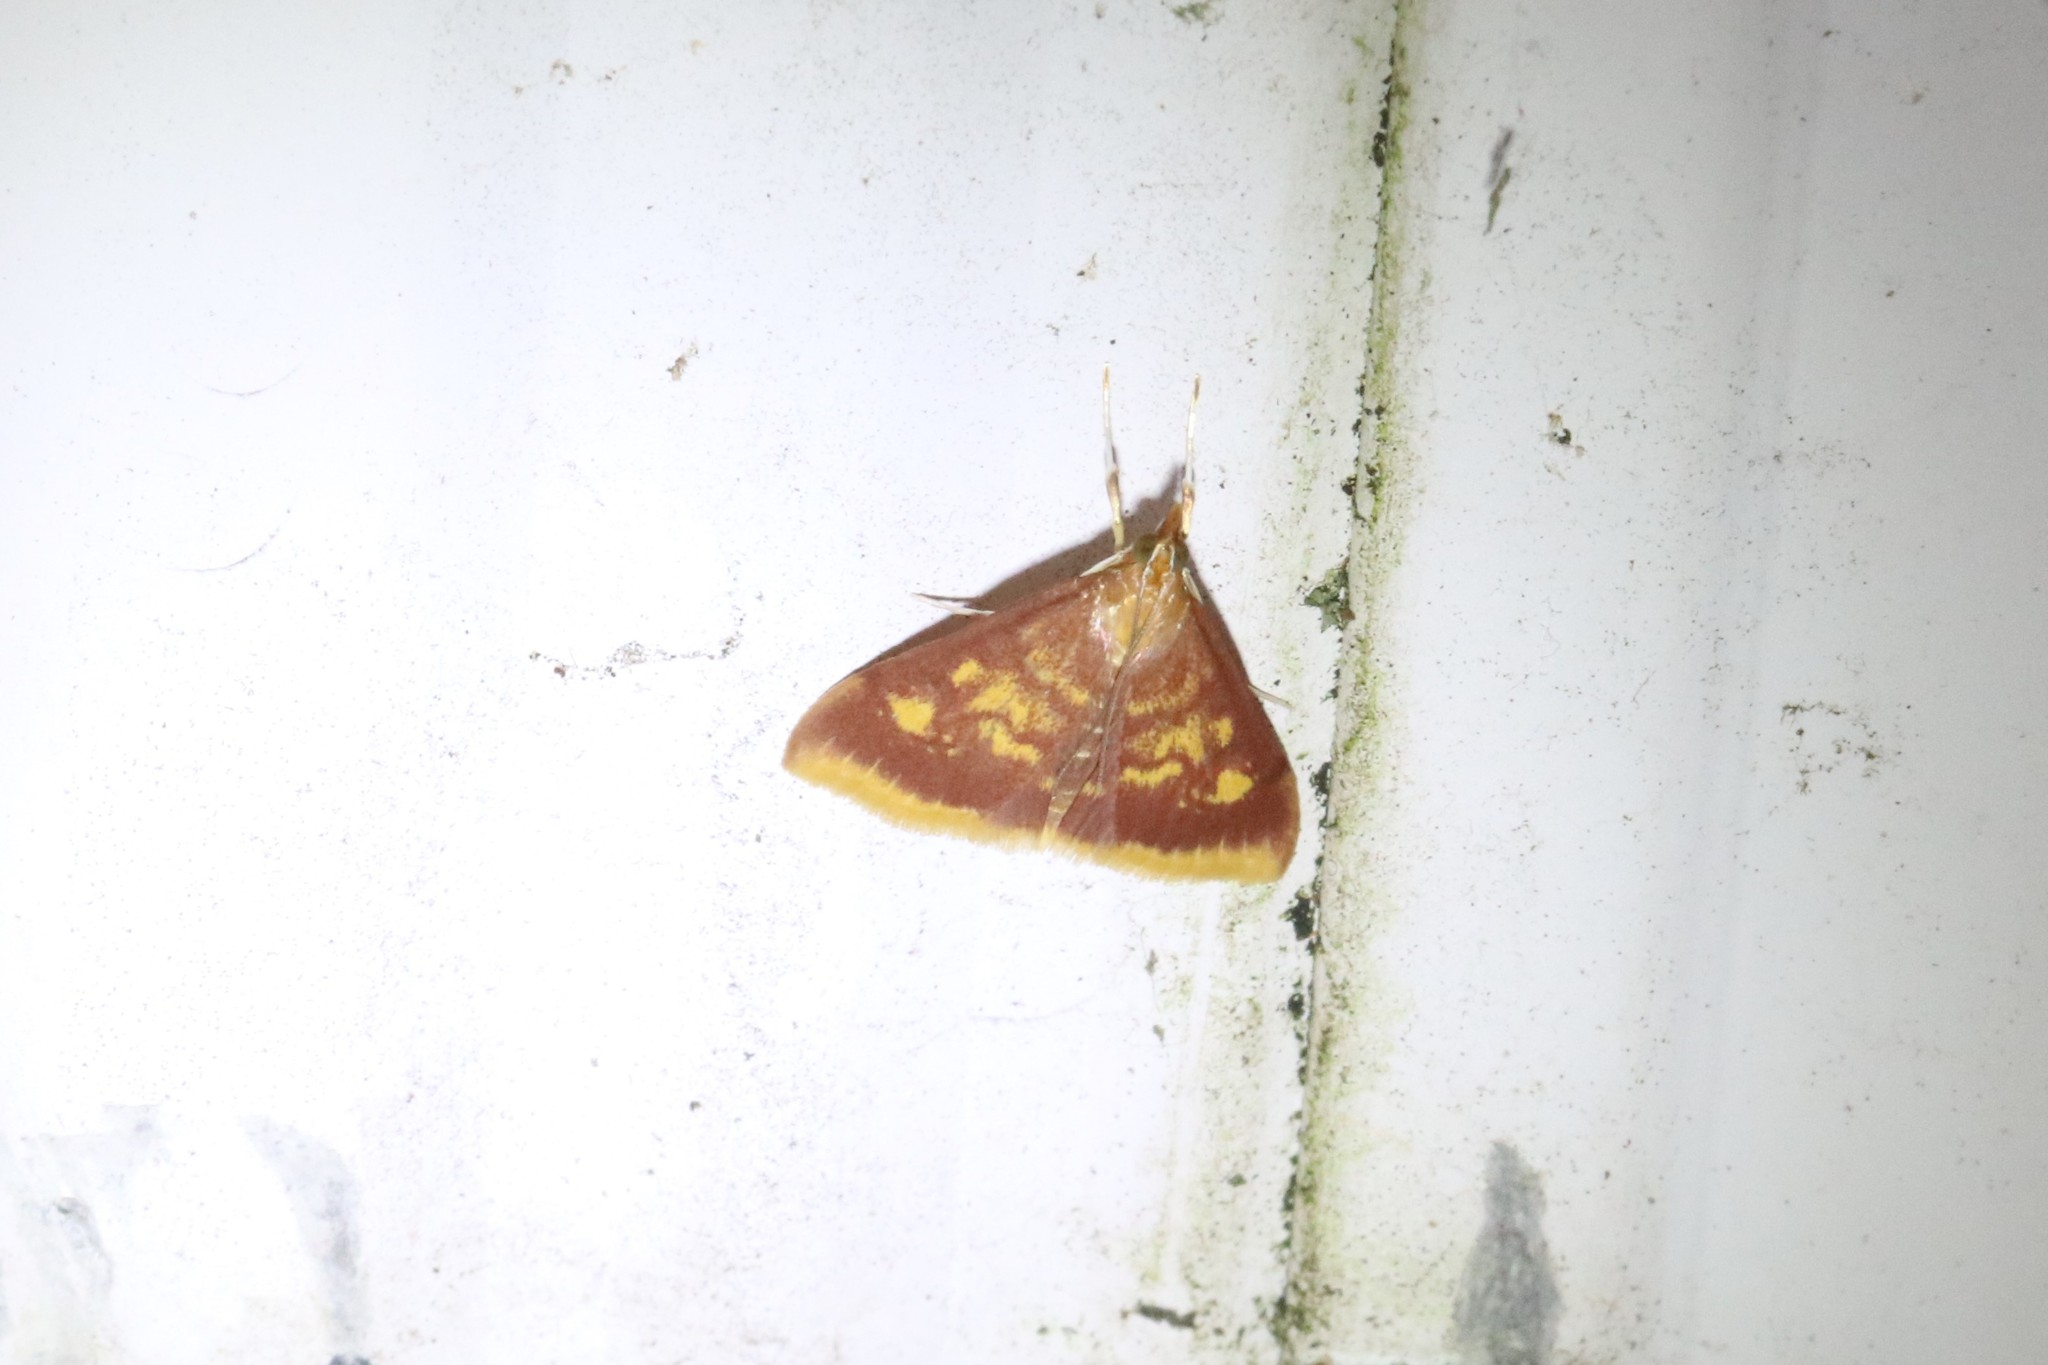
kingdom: Animalia
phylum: Arthropoda
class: Insecta
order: Lepidoptera
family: Crambidae
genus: Pyrausta
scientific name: Pyrausta acrionalis
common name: Mint-loving pyrausta moth
